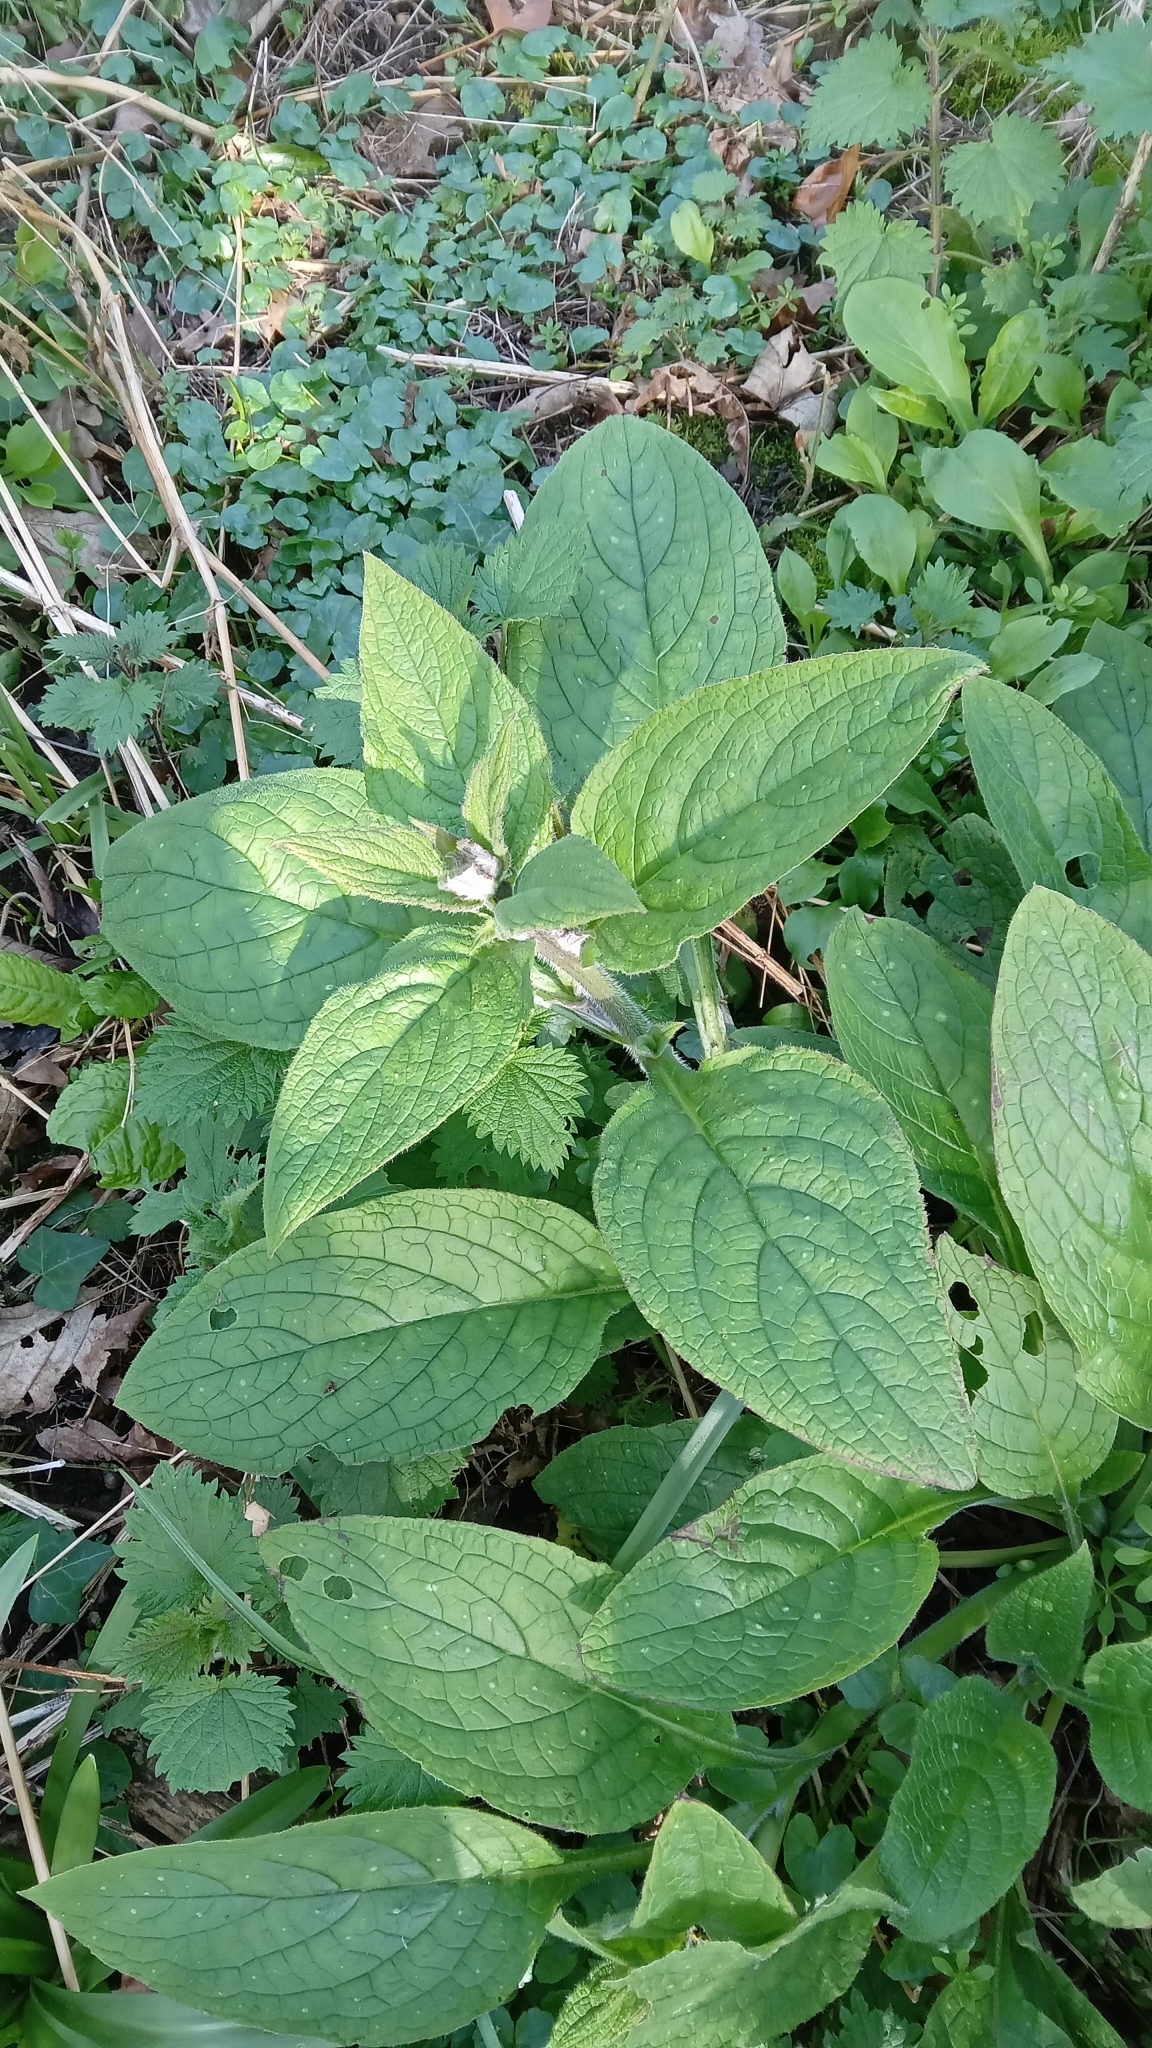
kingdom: Plantae
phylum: Tracheophyta
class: Magnoliopsida
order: Boraginales
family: Boraginaceae
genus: Pentaglottis
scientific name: Pentaglottis sempervirens
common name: Green alkanet
